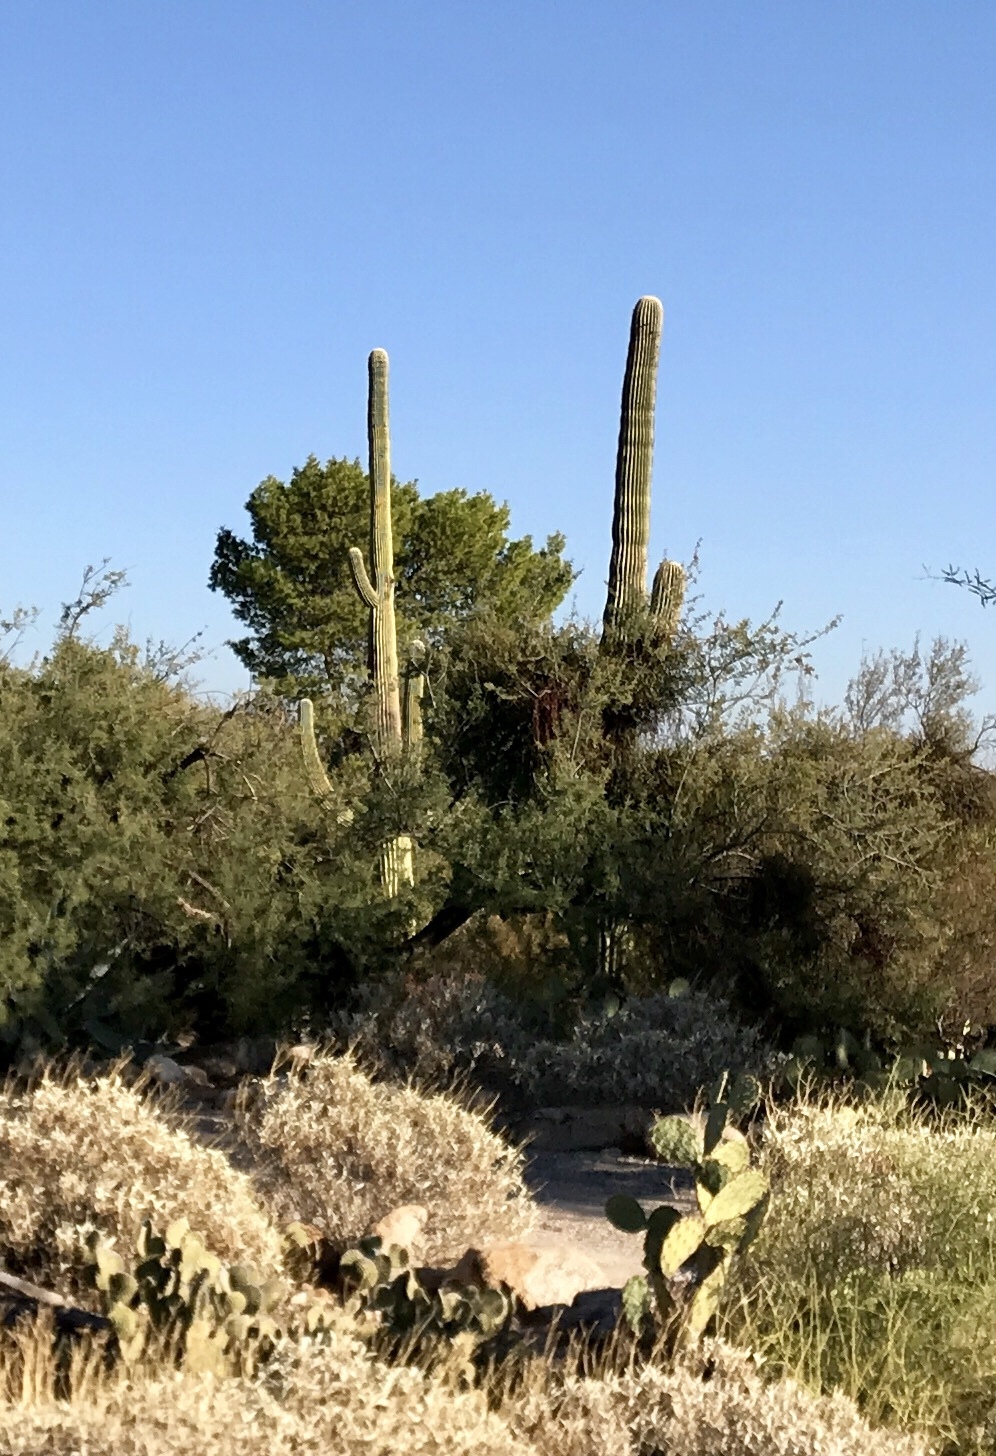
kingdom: Plantae
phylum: Tracheophyta
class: Magnoliopsida
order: Caryophyllales
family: Cactaceae
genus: Carnegiea
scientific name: Carnegiea gigantea
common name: Saguaro
